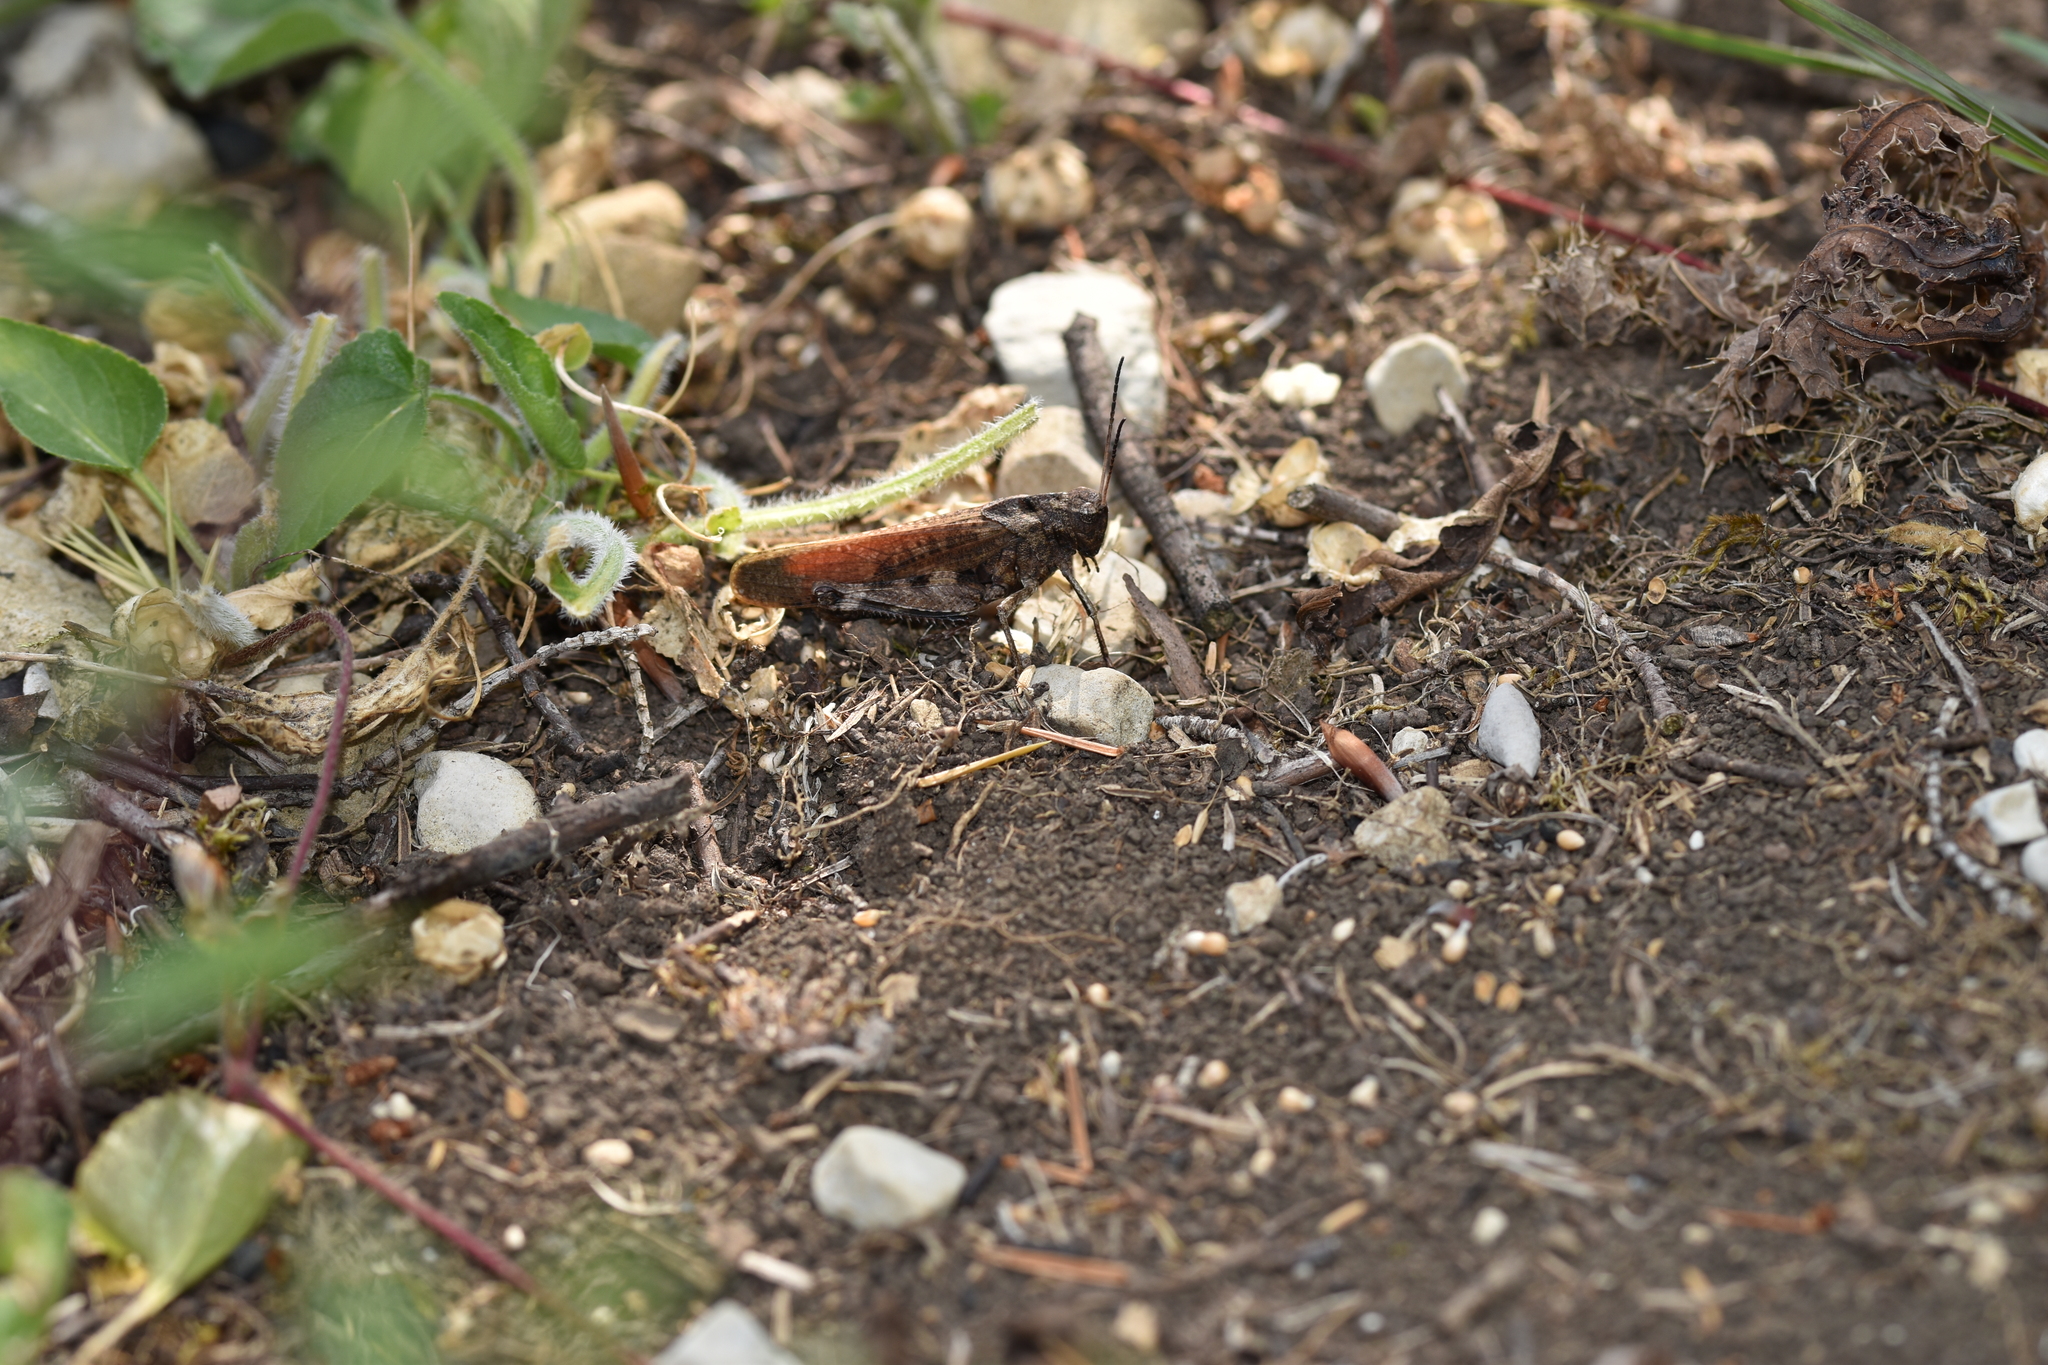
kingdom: Animalia
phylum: Arthropoda
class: Insecta
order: Orthoptera
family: Acrididae
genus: Psophus
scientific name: Psophus stridulus
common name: Rattle grasshopper
